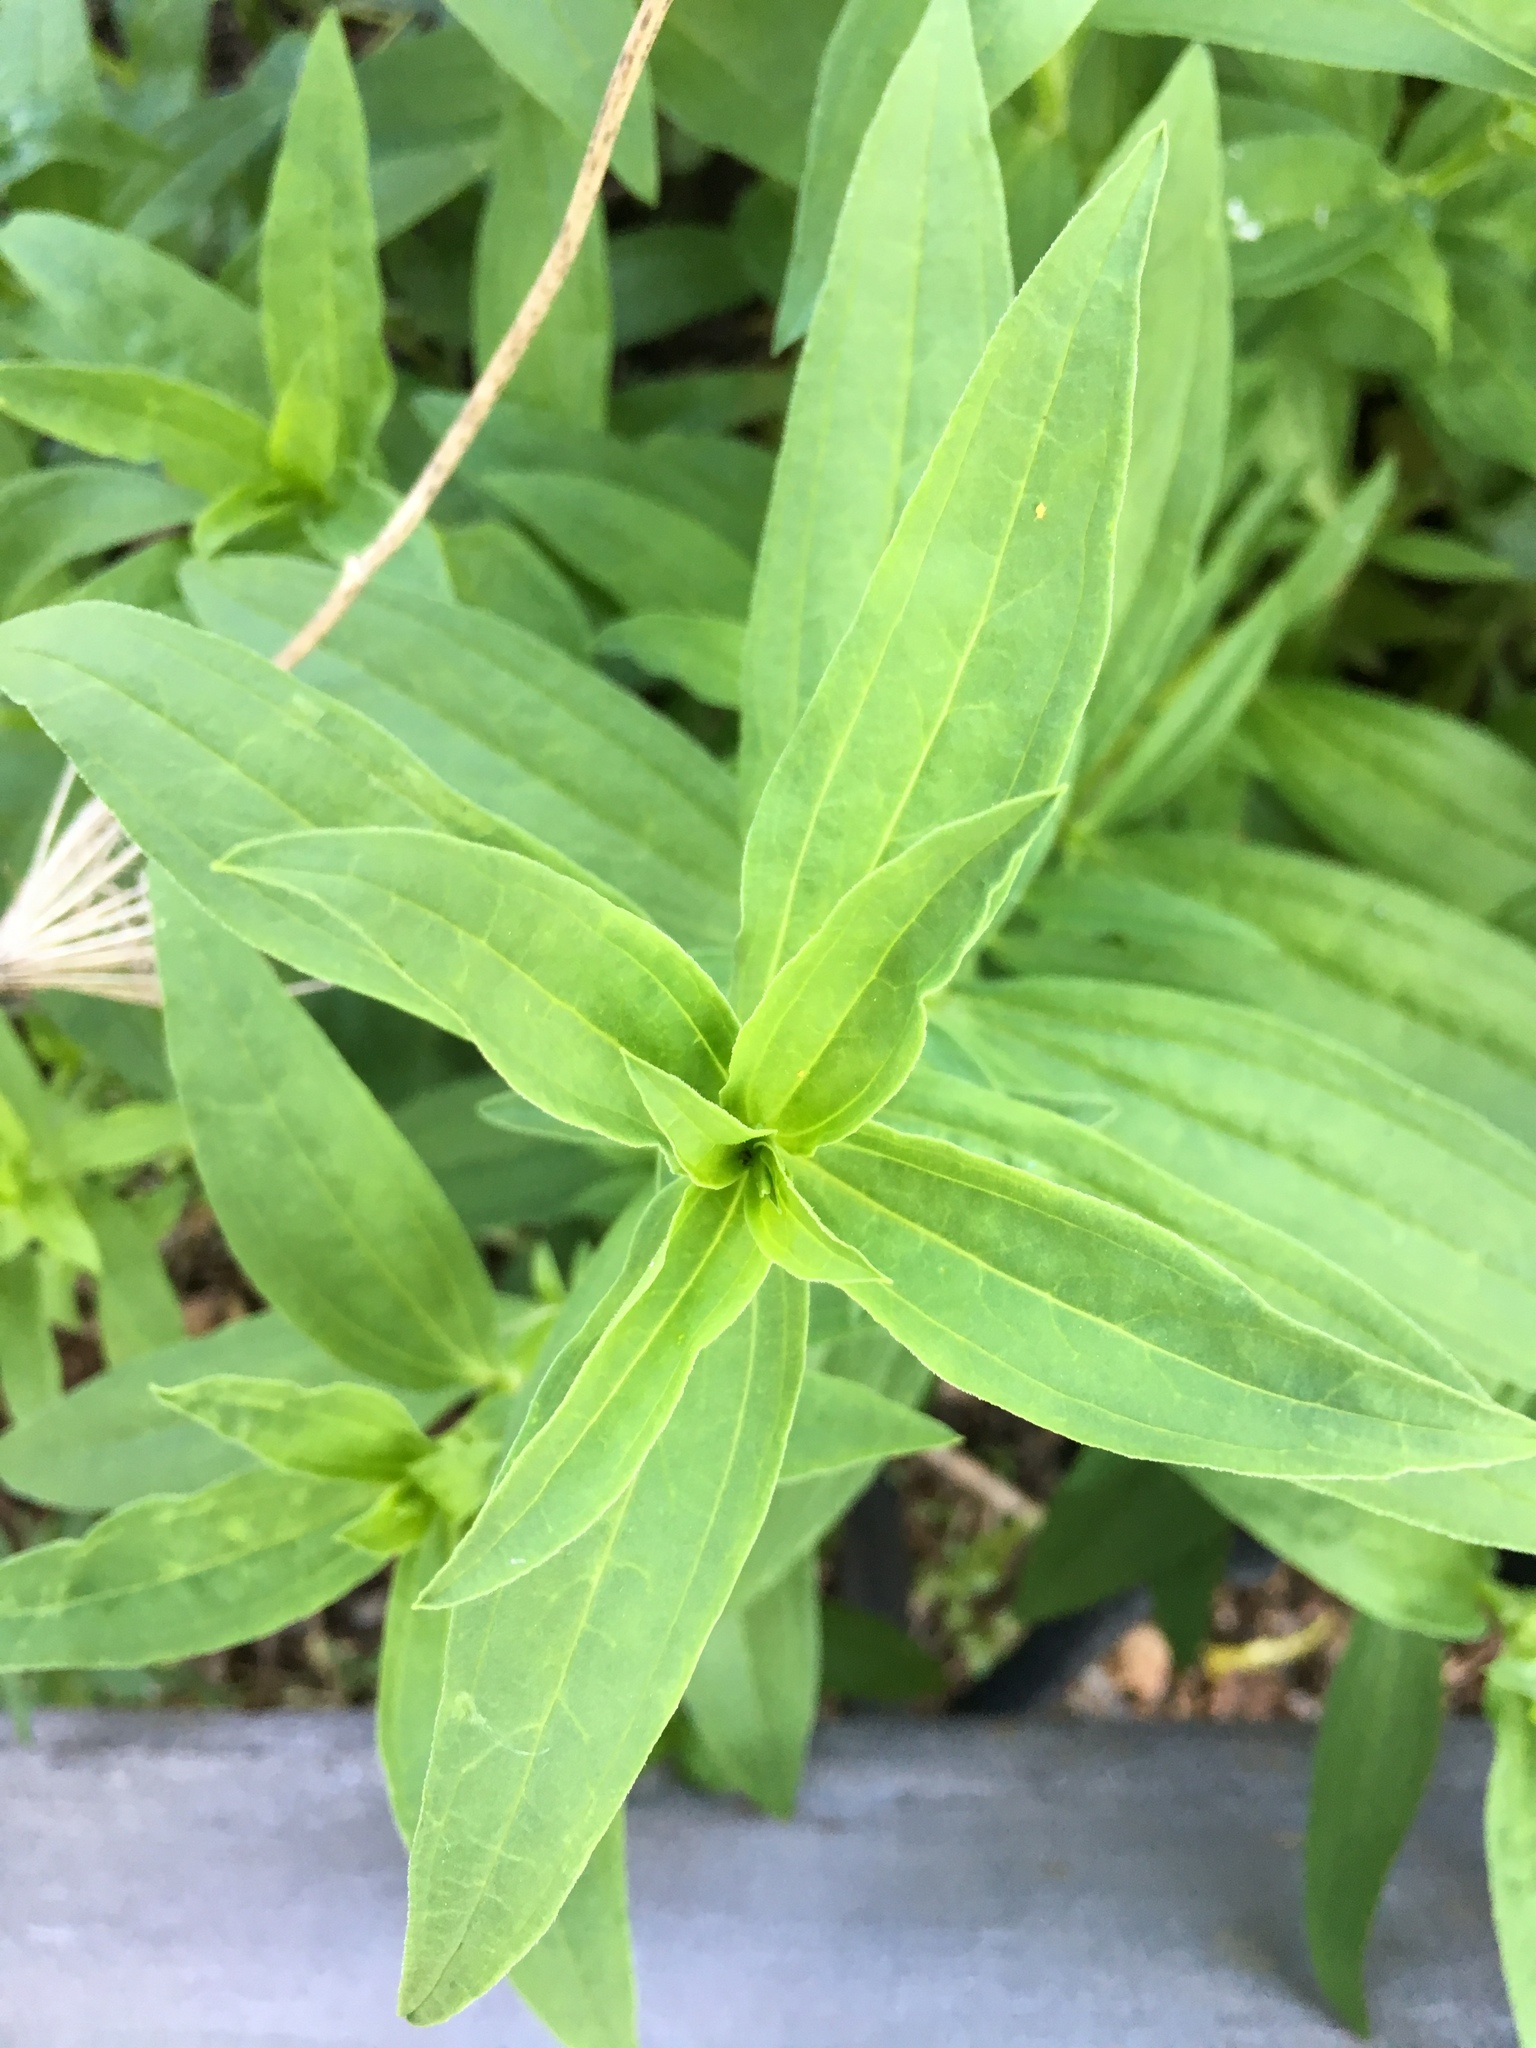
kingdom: Plantae
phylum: Tracheophyta
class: Magnoliopsida
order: Caryophyllales
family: Caryophyllaceae
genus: Saponaria
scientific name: Saponaria officinalis
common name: Soapwort
